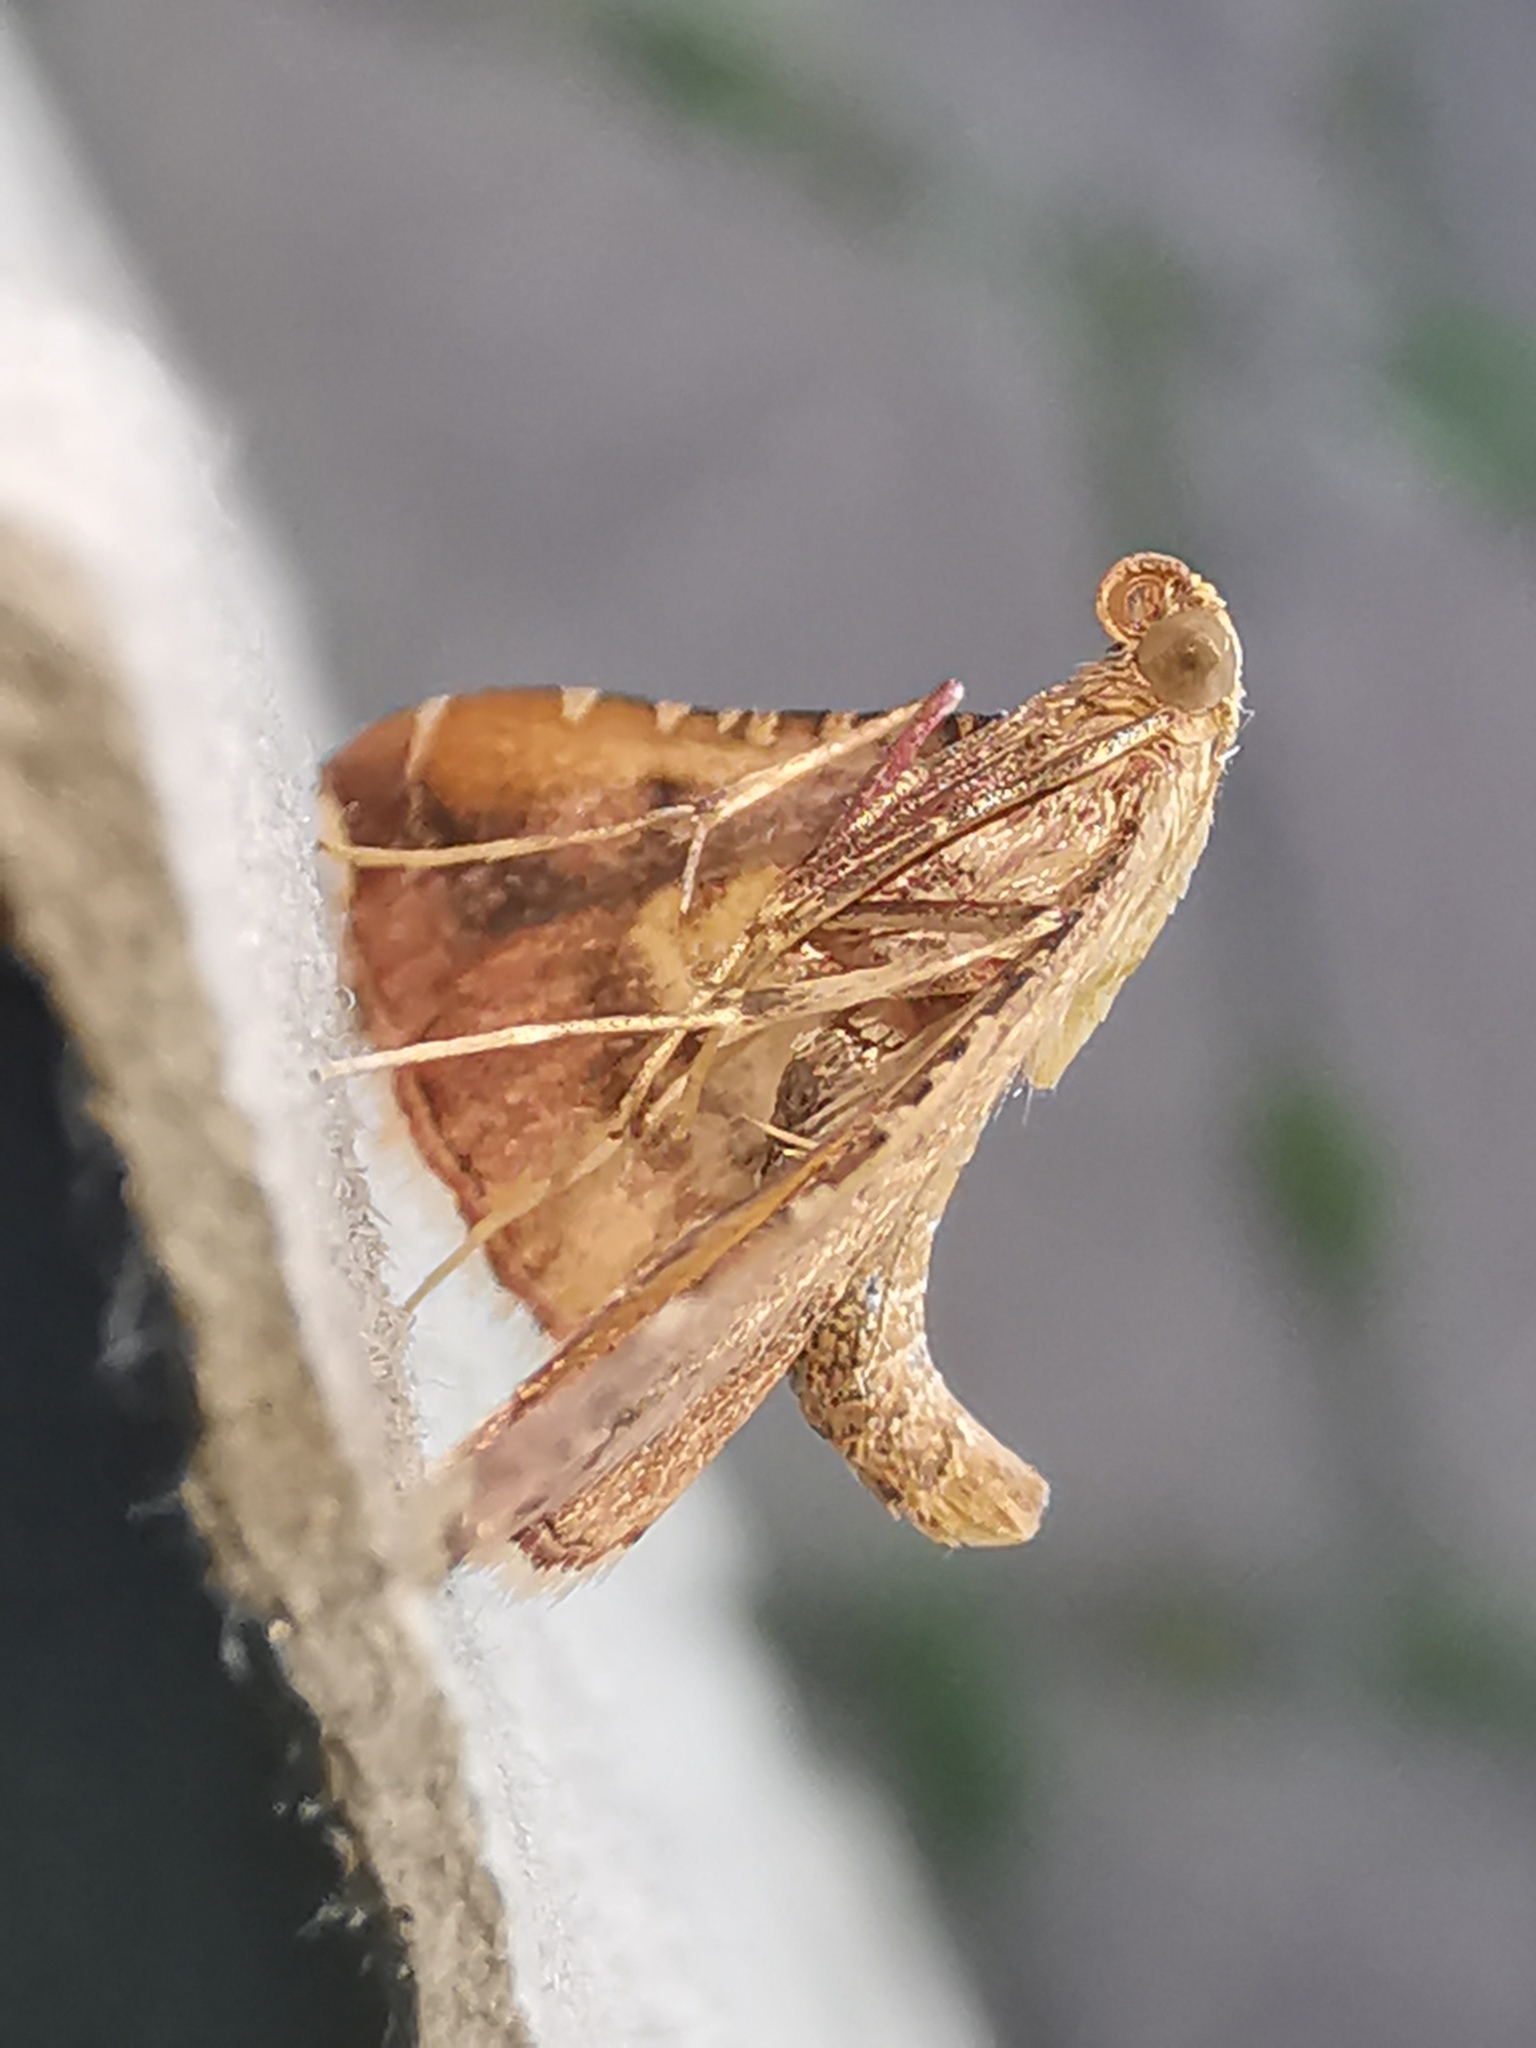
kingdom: Animalia
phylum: Arthropoda
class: Insecta
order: Lepidoptera
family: Pyralidae
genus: Endotricha
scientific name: Endotricha flammealis
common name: Rosy tabby
